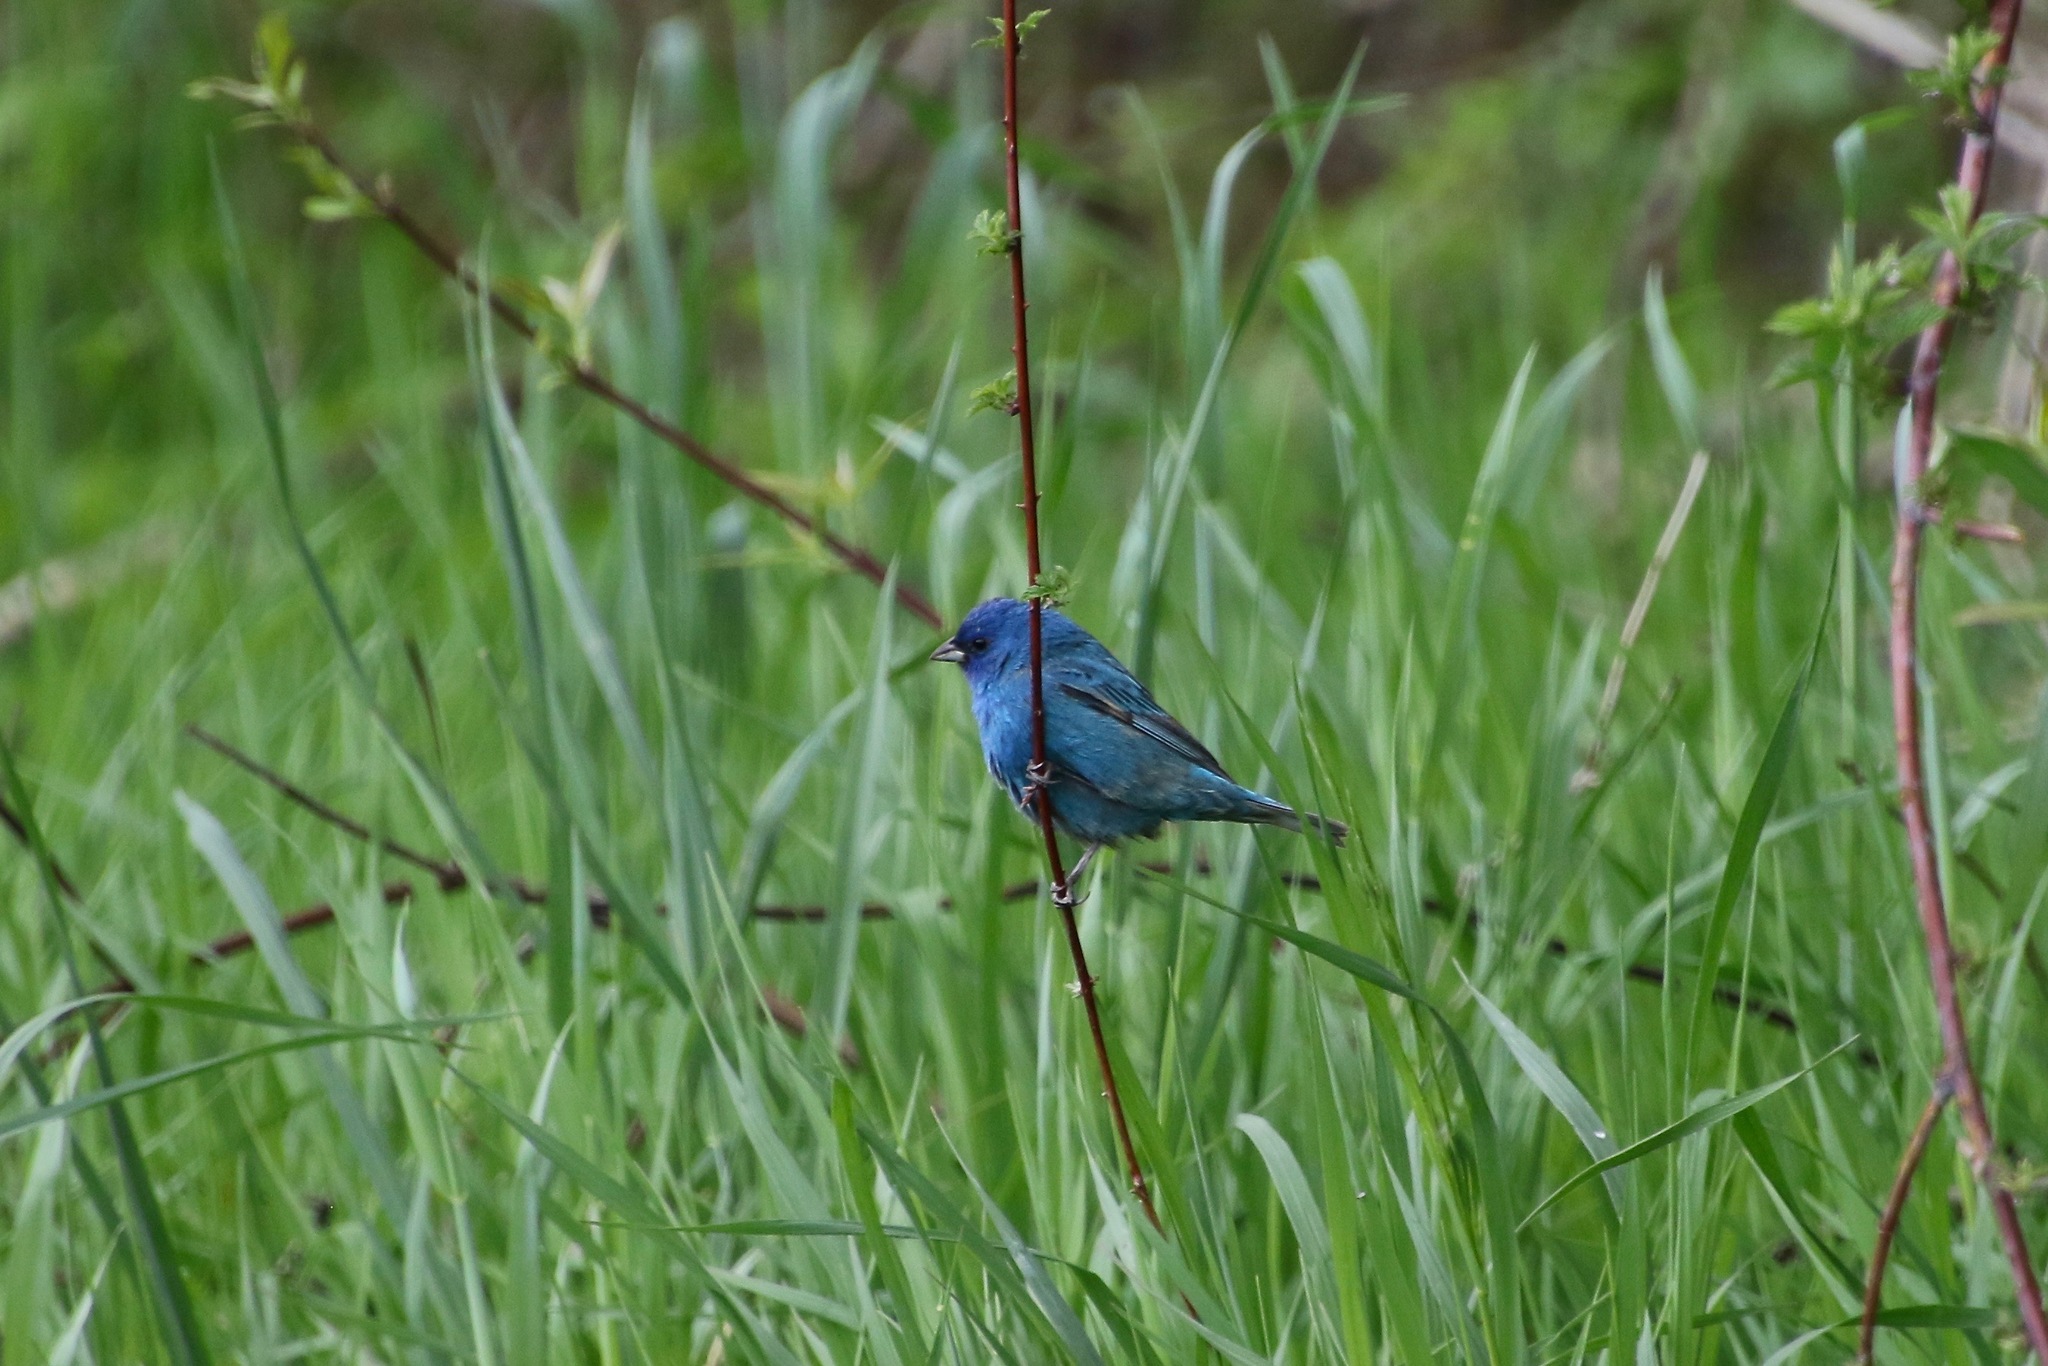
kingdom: Animalia
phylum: Chordata
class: Aves
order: Passeriformes
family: Cardinalidae
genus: Passerina
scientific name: Passerina cyanea
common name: Indigo bunting
